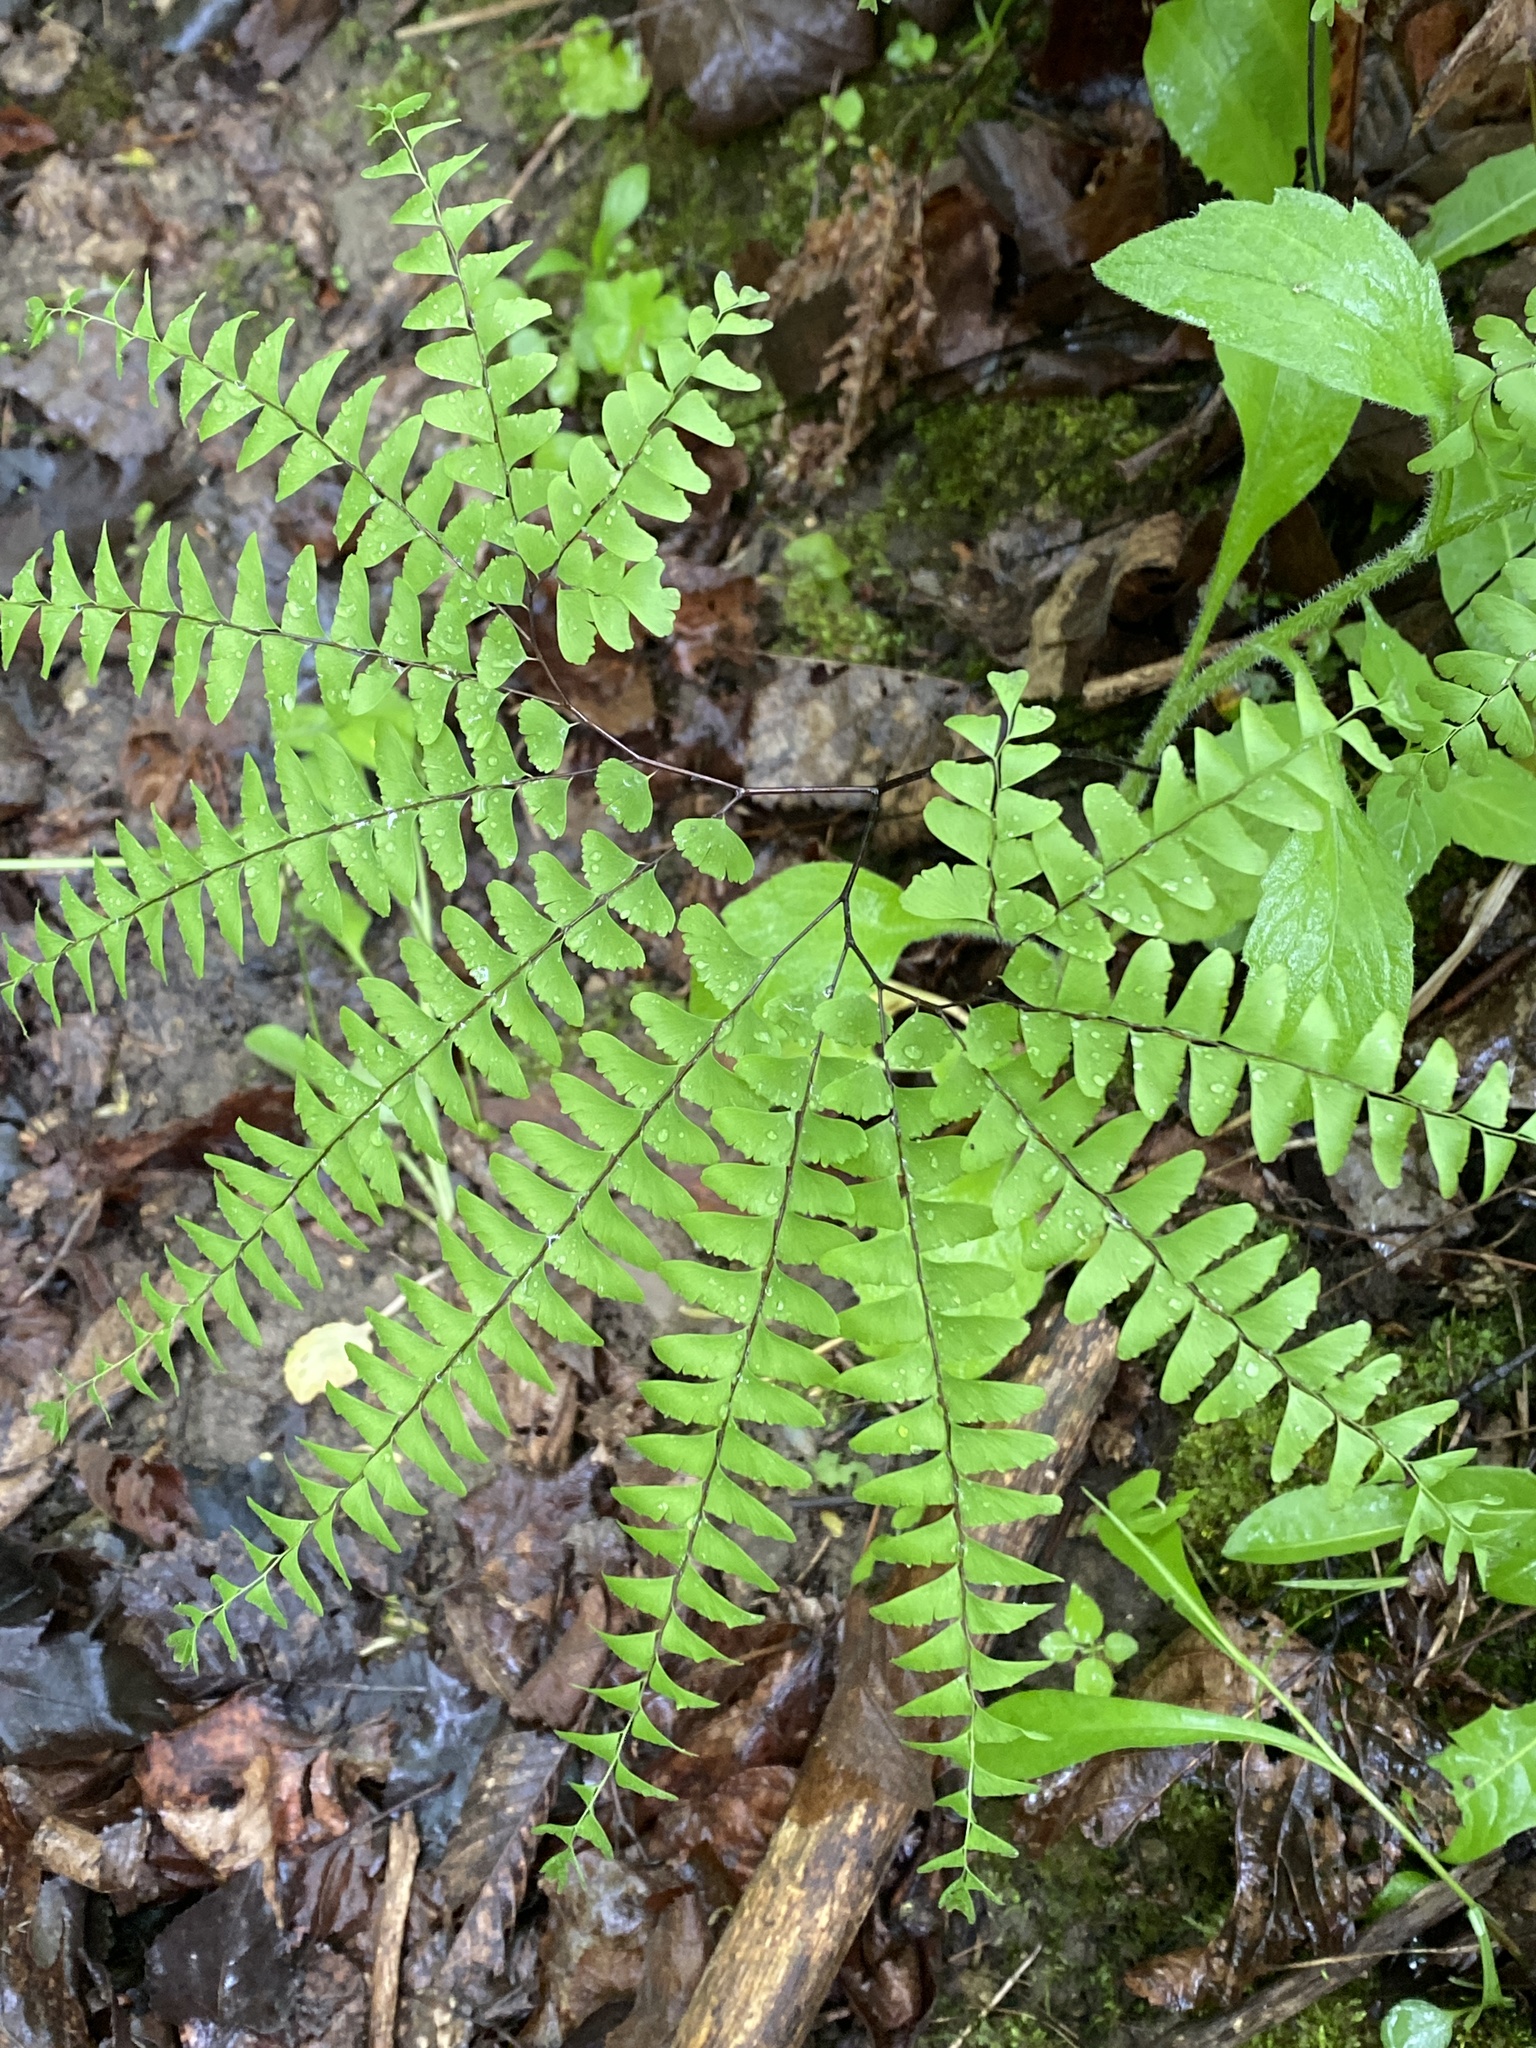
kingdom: Plantae
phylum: Tracheophyta
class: Polypodiopsida
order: Polypodiales
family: Pteridaceae
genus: Adiantum
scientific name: Adiantum pedatum
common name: Five-finger fern
